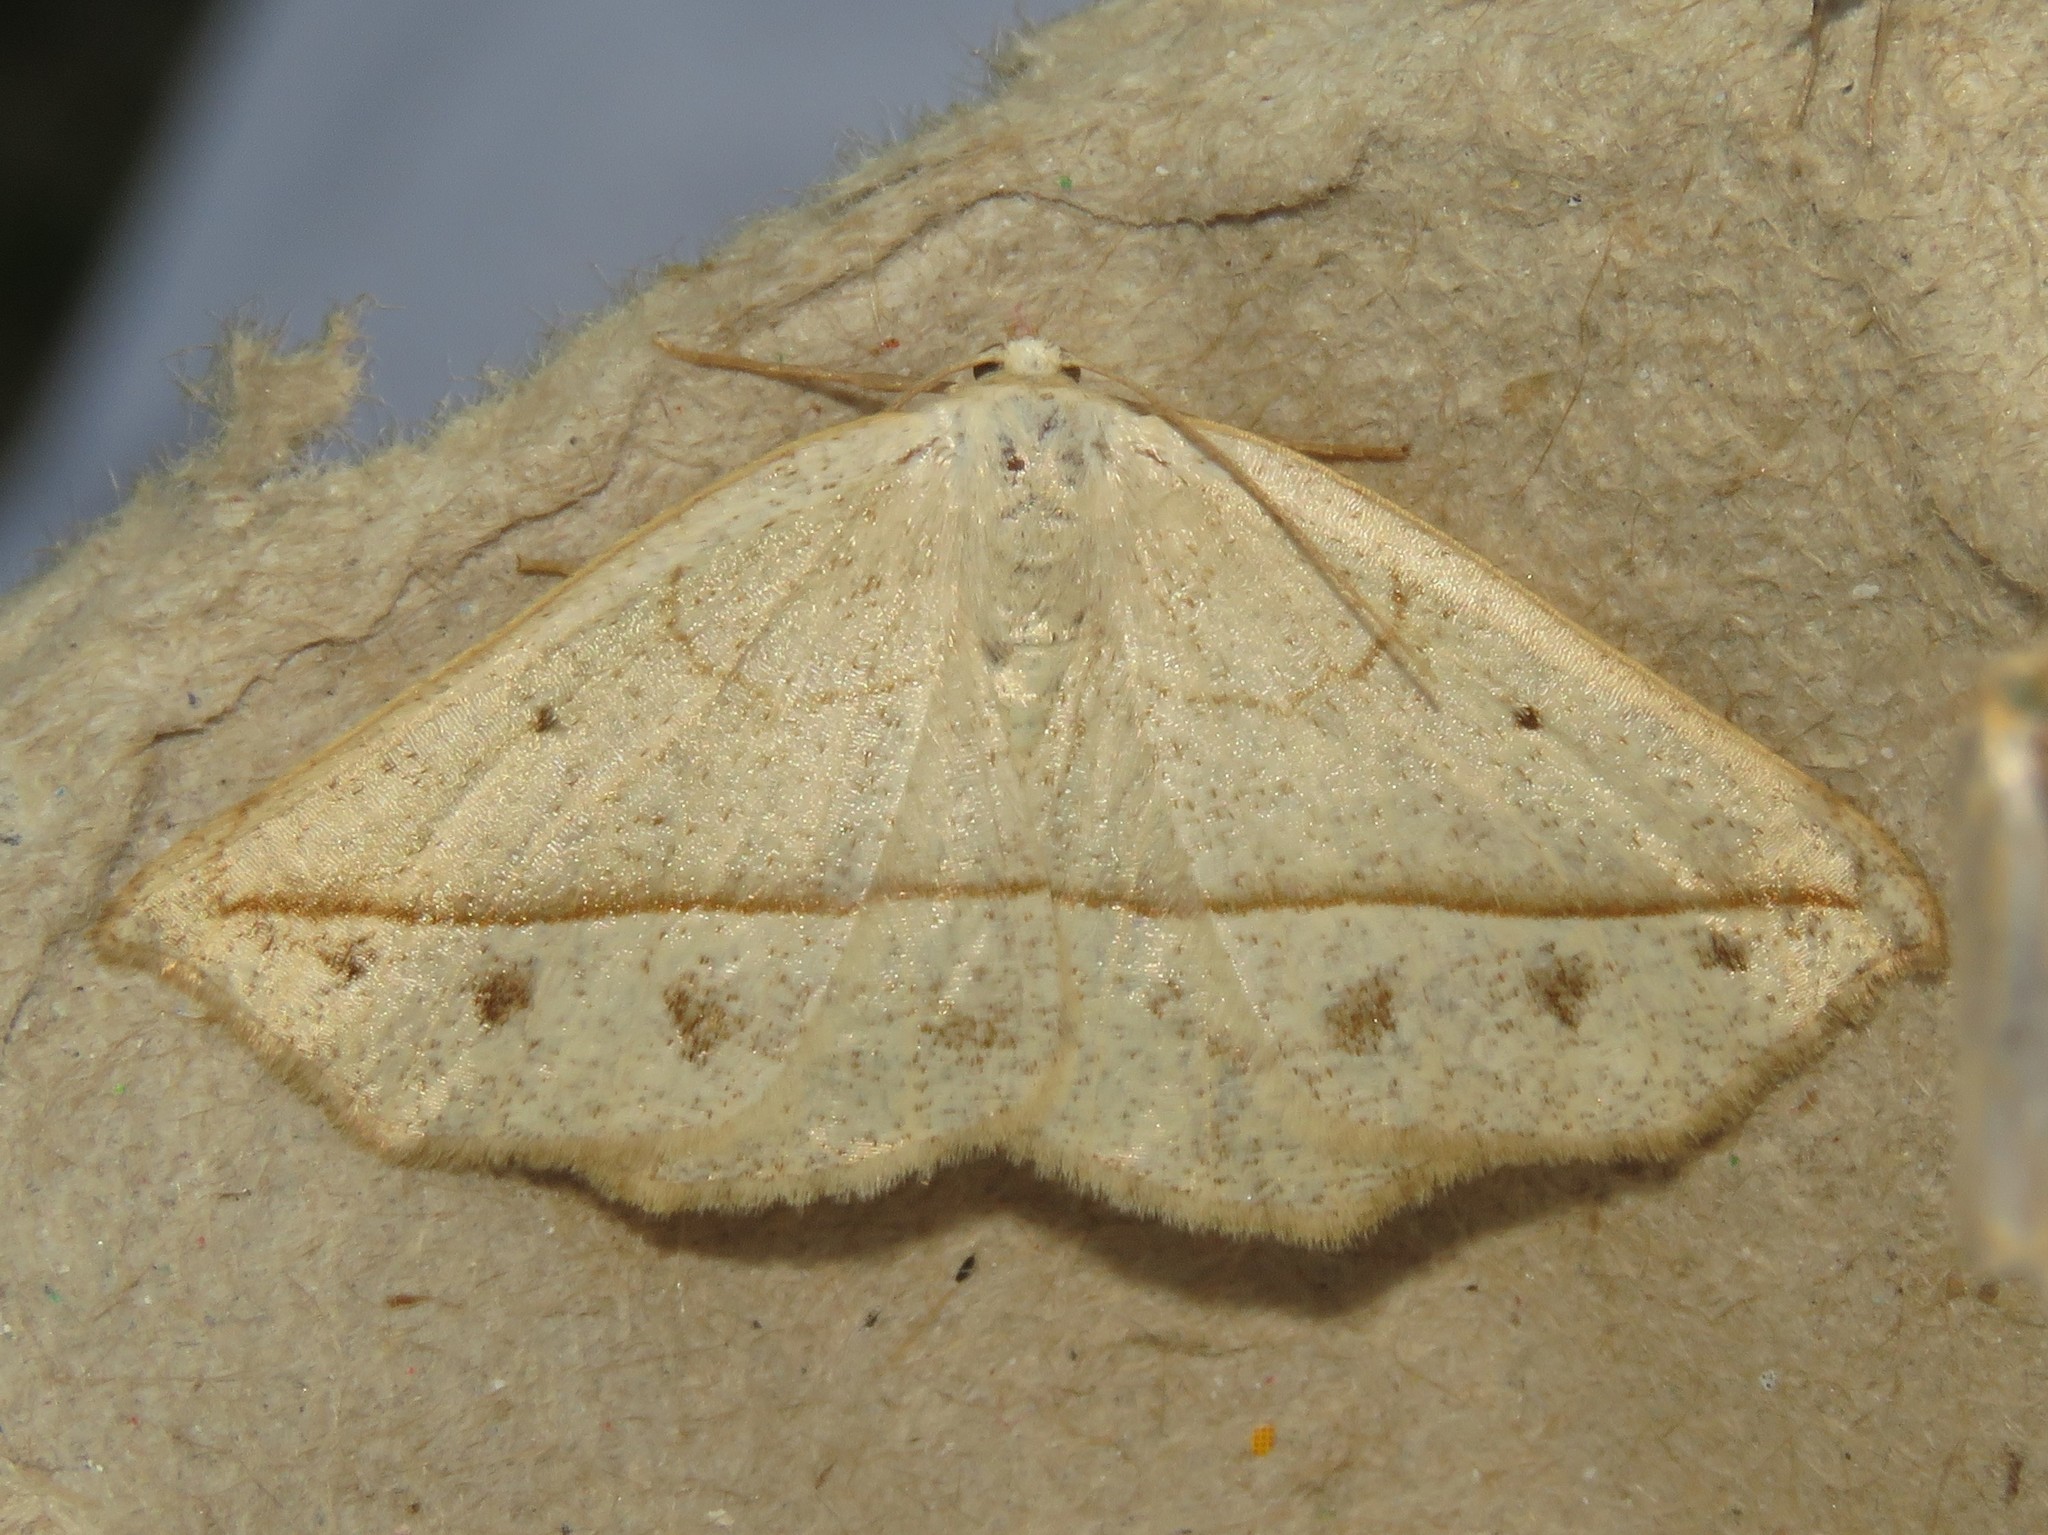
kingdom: Animalia
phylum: Arthropoda
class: Insecta
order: Lepidoptera
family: Geometridae
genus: Eusarca
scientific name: Eusarca confusaria
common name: Confused eusarca
